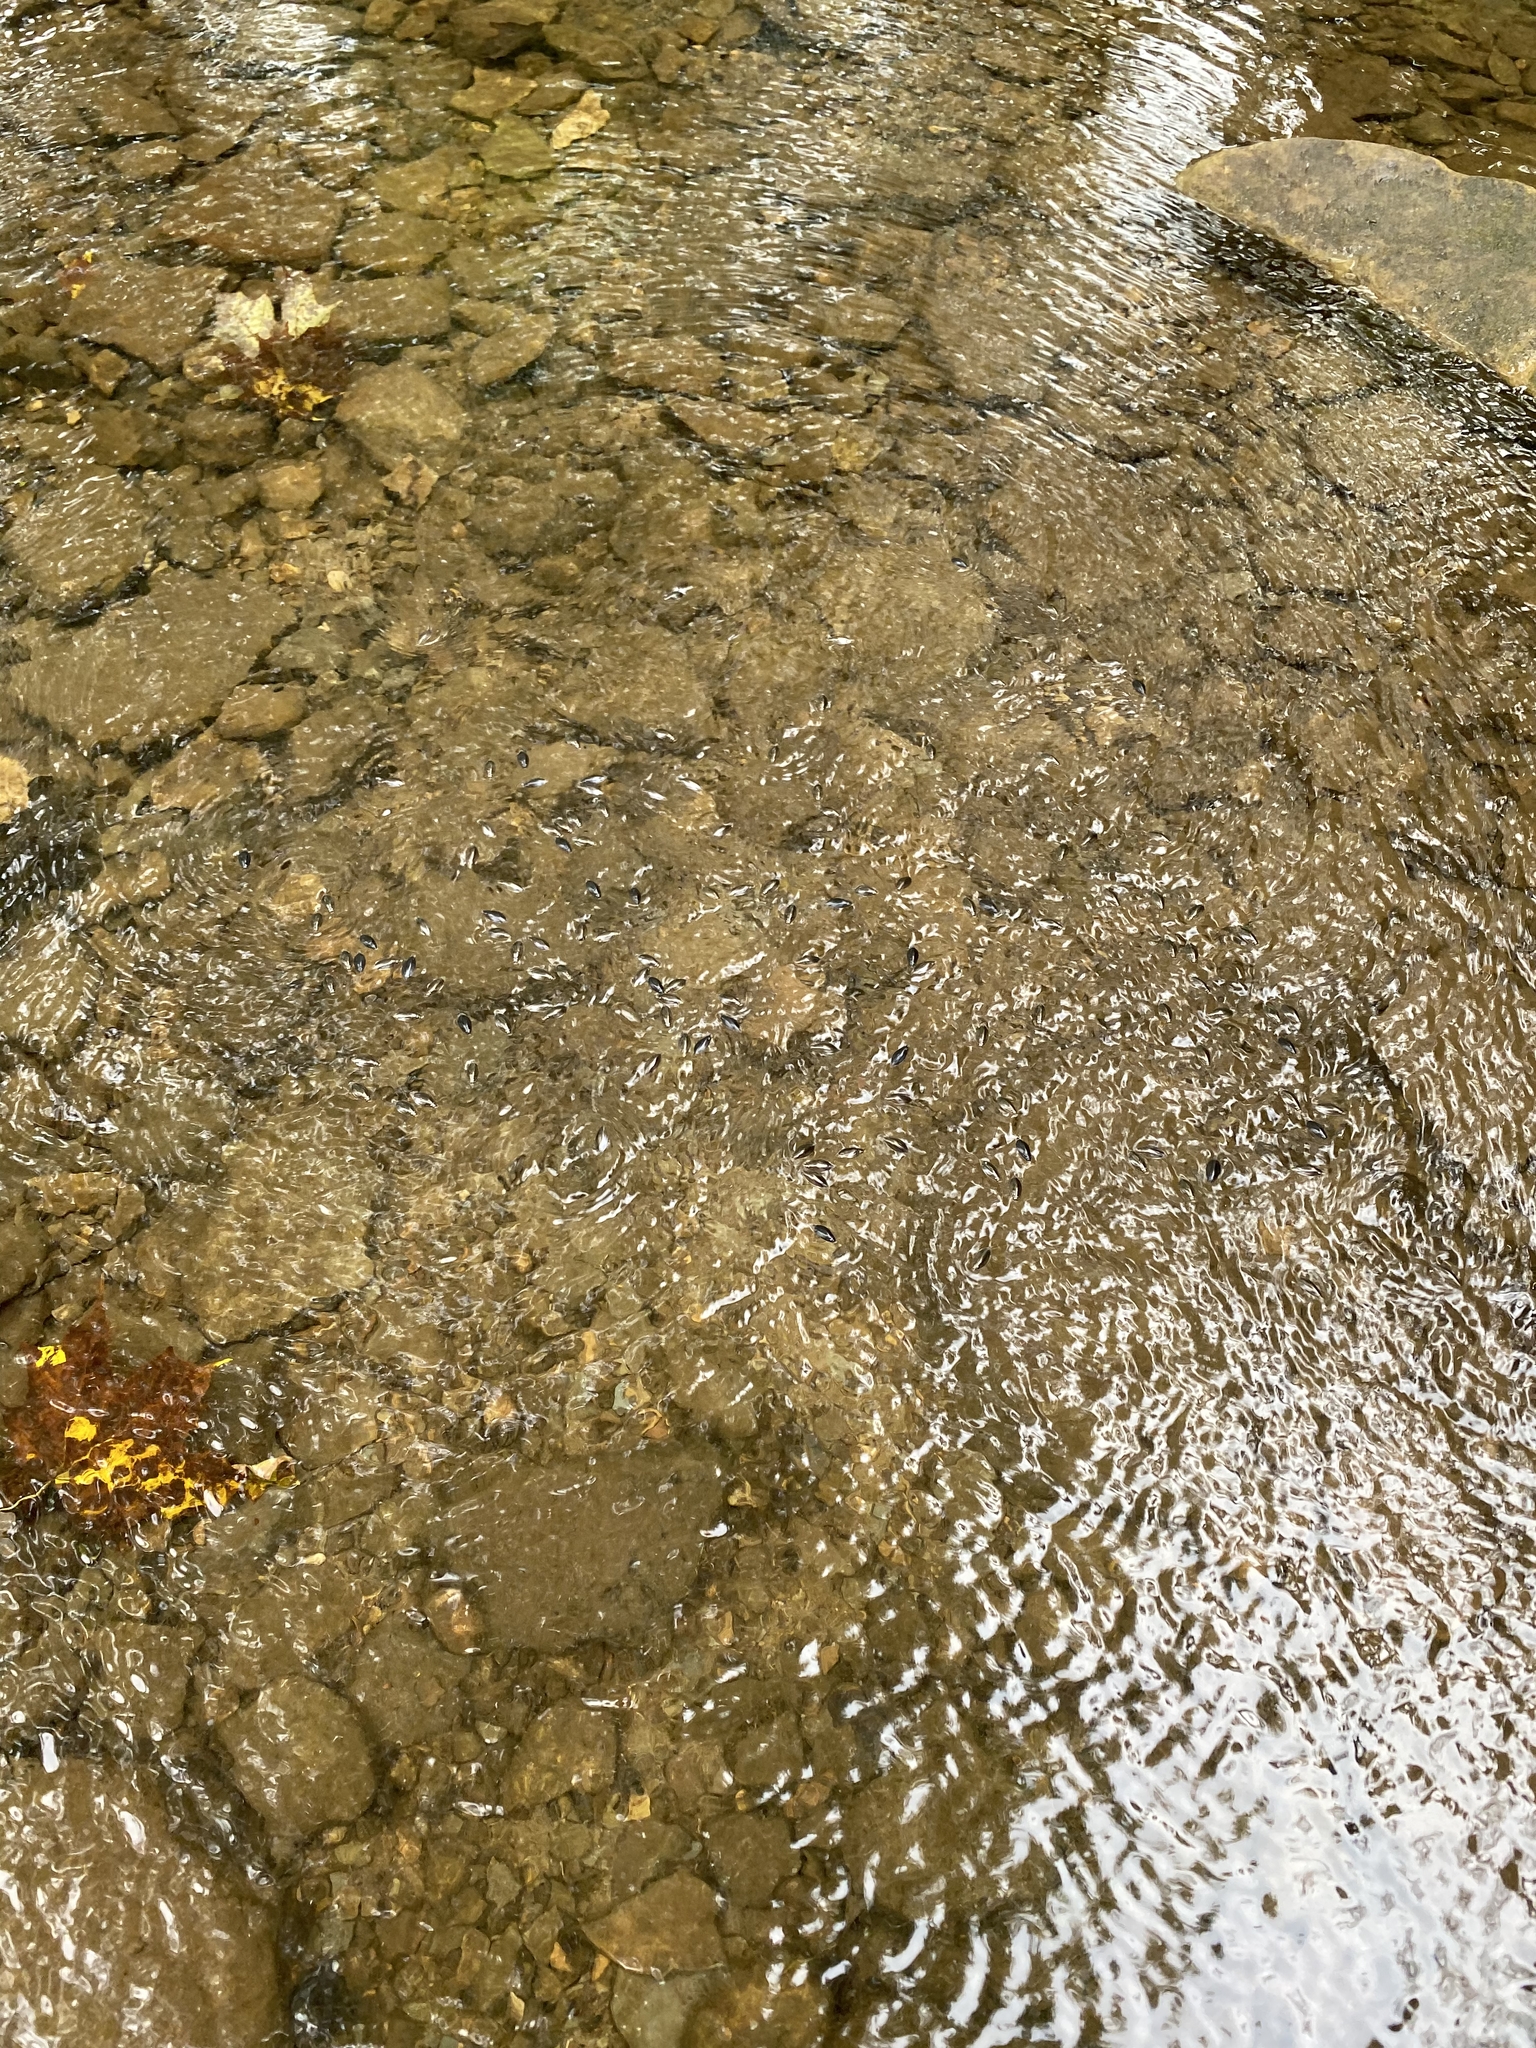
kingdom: Animalia
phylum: Arthropoda
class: Insecta
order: Coleoptera
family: Gyrinidae
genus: Dineutus
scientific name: Dineutus
